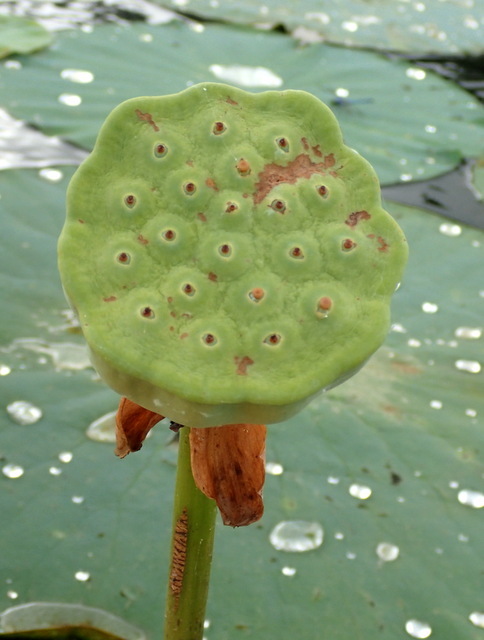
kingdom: Plantae
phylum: Tracheophyta
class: Magnoliopsida
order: Proteales
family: Nelumbonaceae
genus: Nelumbo
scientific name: Nelumbo lutea
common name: American lotus
